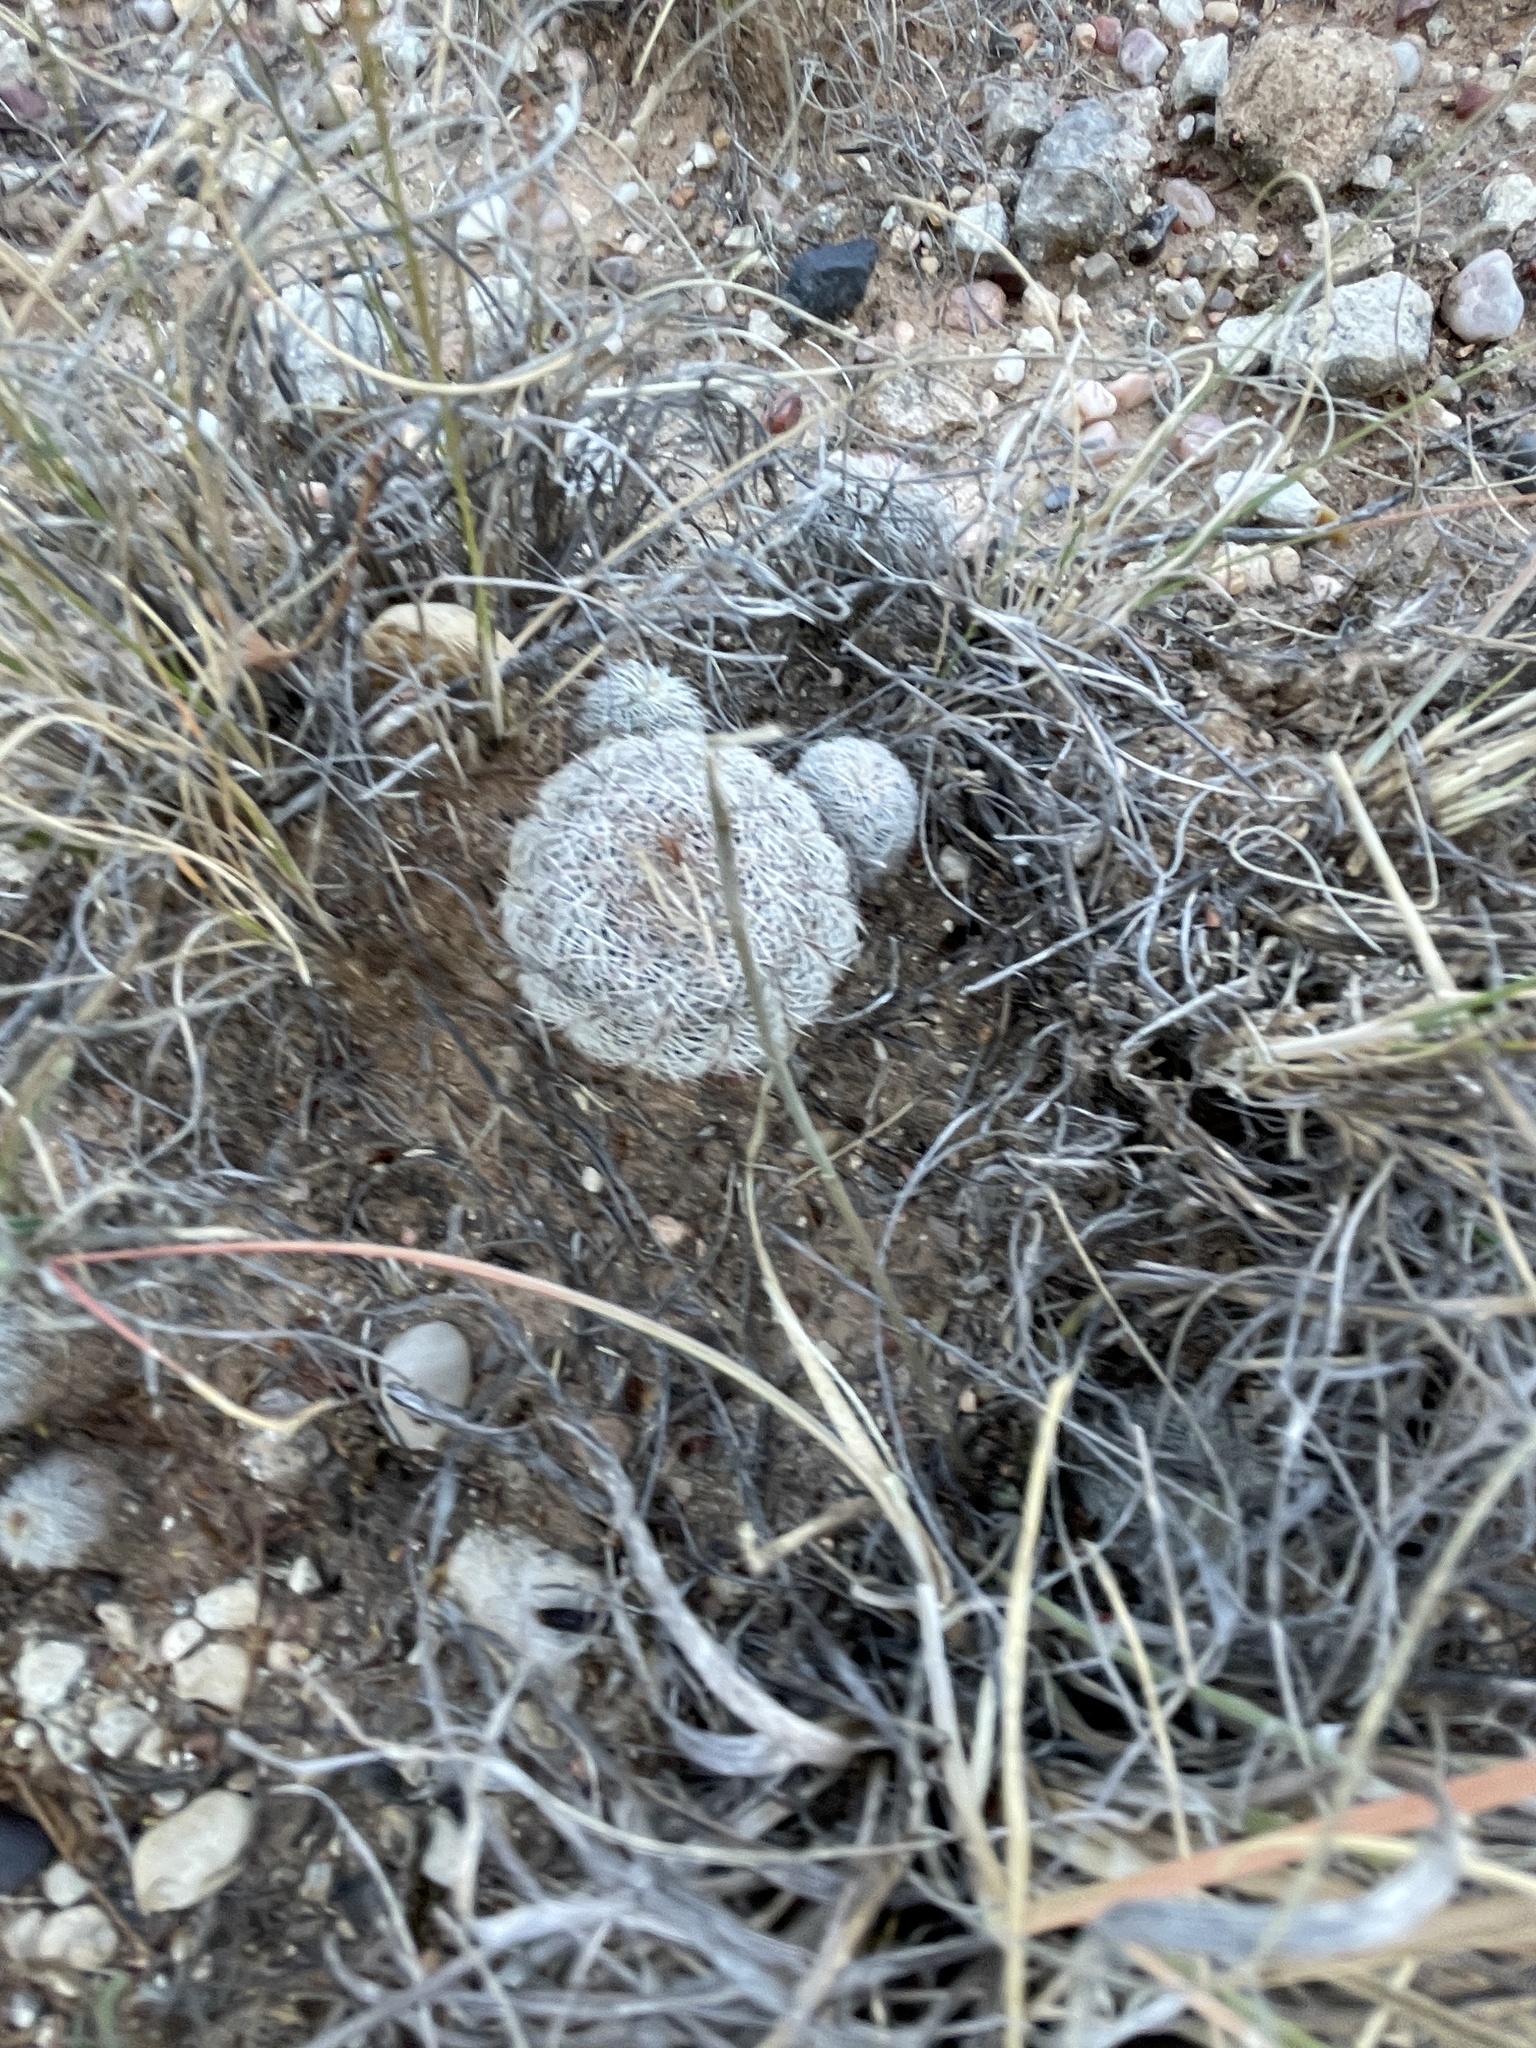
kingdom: Plantae
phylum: Tracheophyta
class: Magnoliopsida
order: Caryophyllales
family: Cactaceae
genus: Echinocereus
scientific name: Echinocereus reichenbachii
